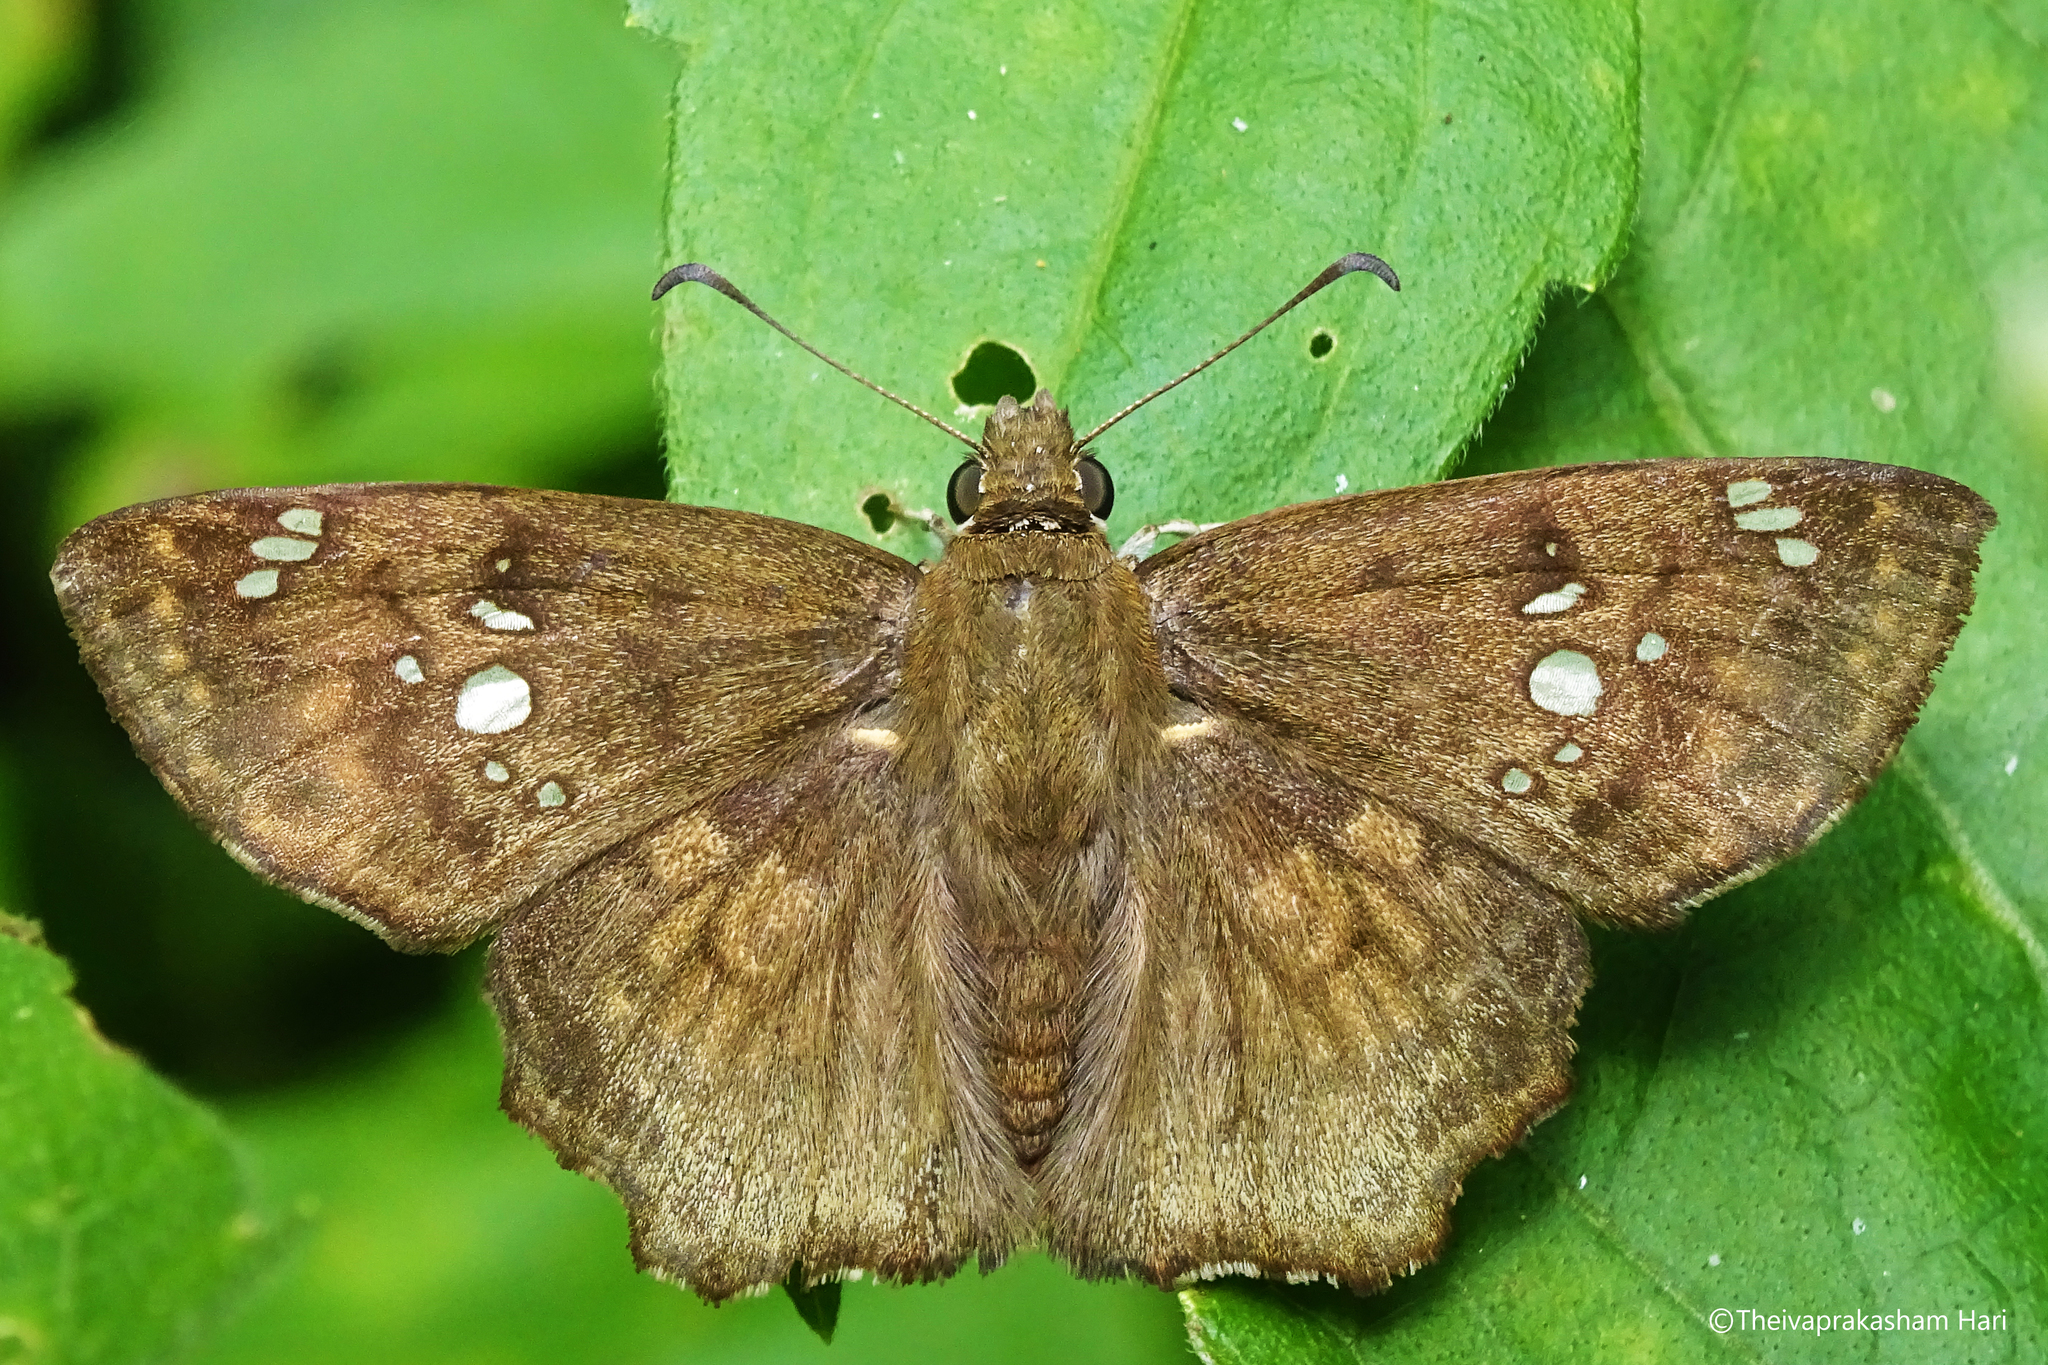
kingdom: Animalia
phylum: Arthropoda
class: Insecta
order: Lepidoptera
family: Hesperiidae
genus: Caprona
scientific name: Caprona ransonnettii
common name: Golden angle
